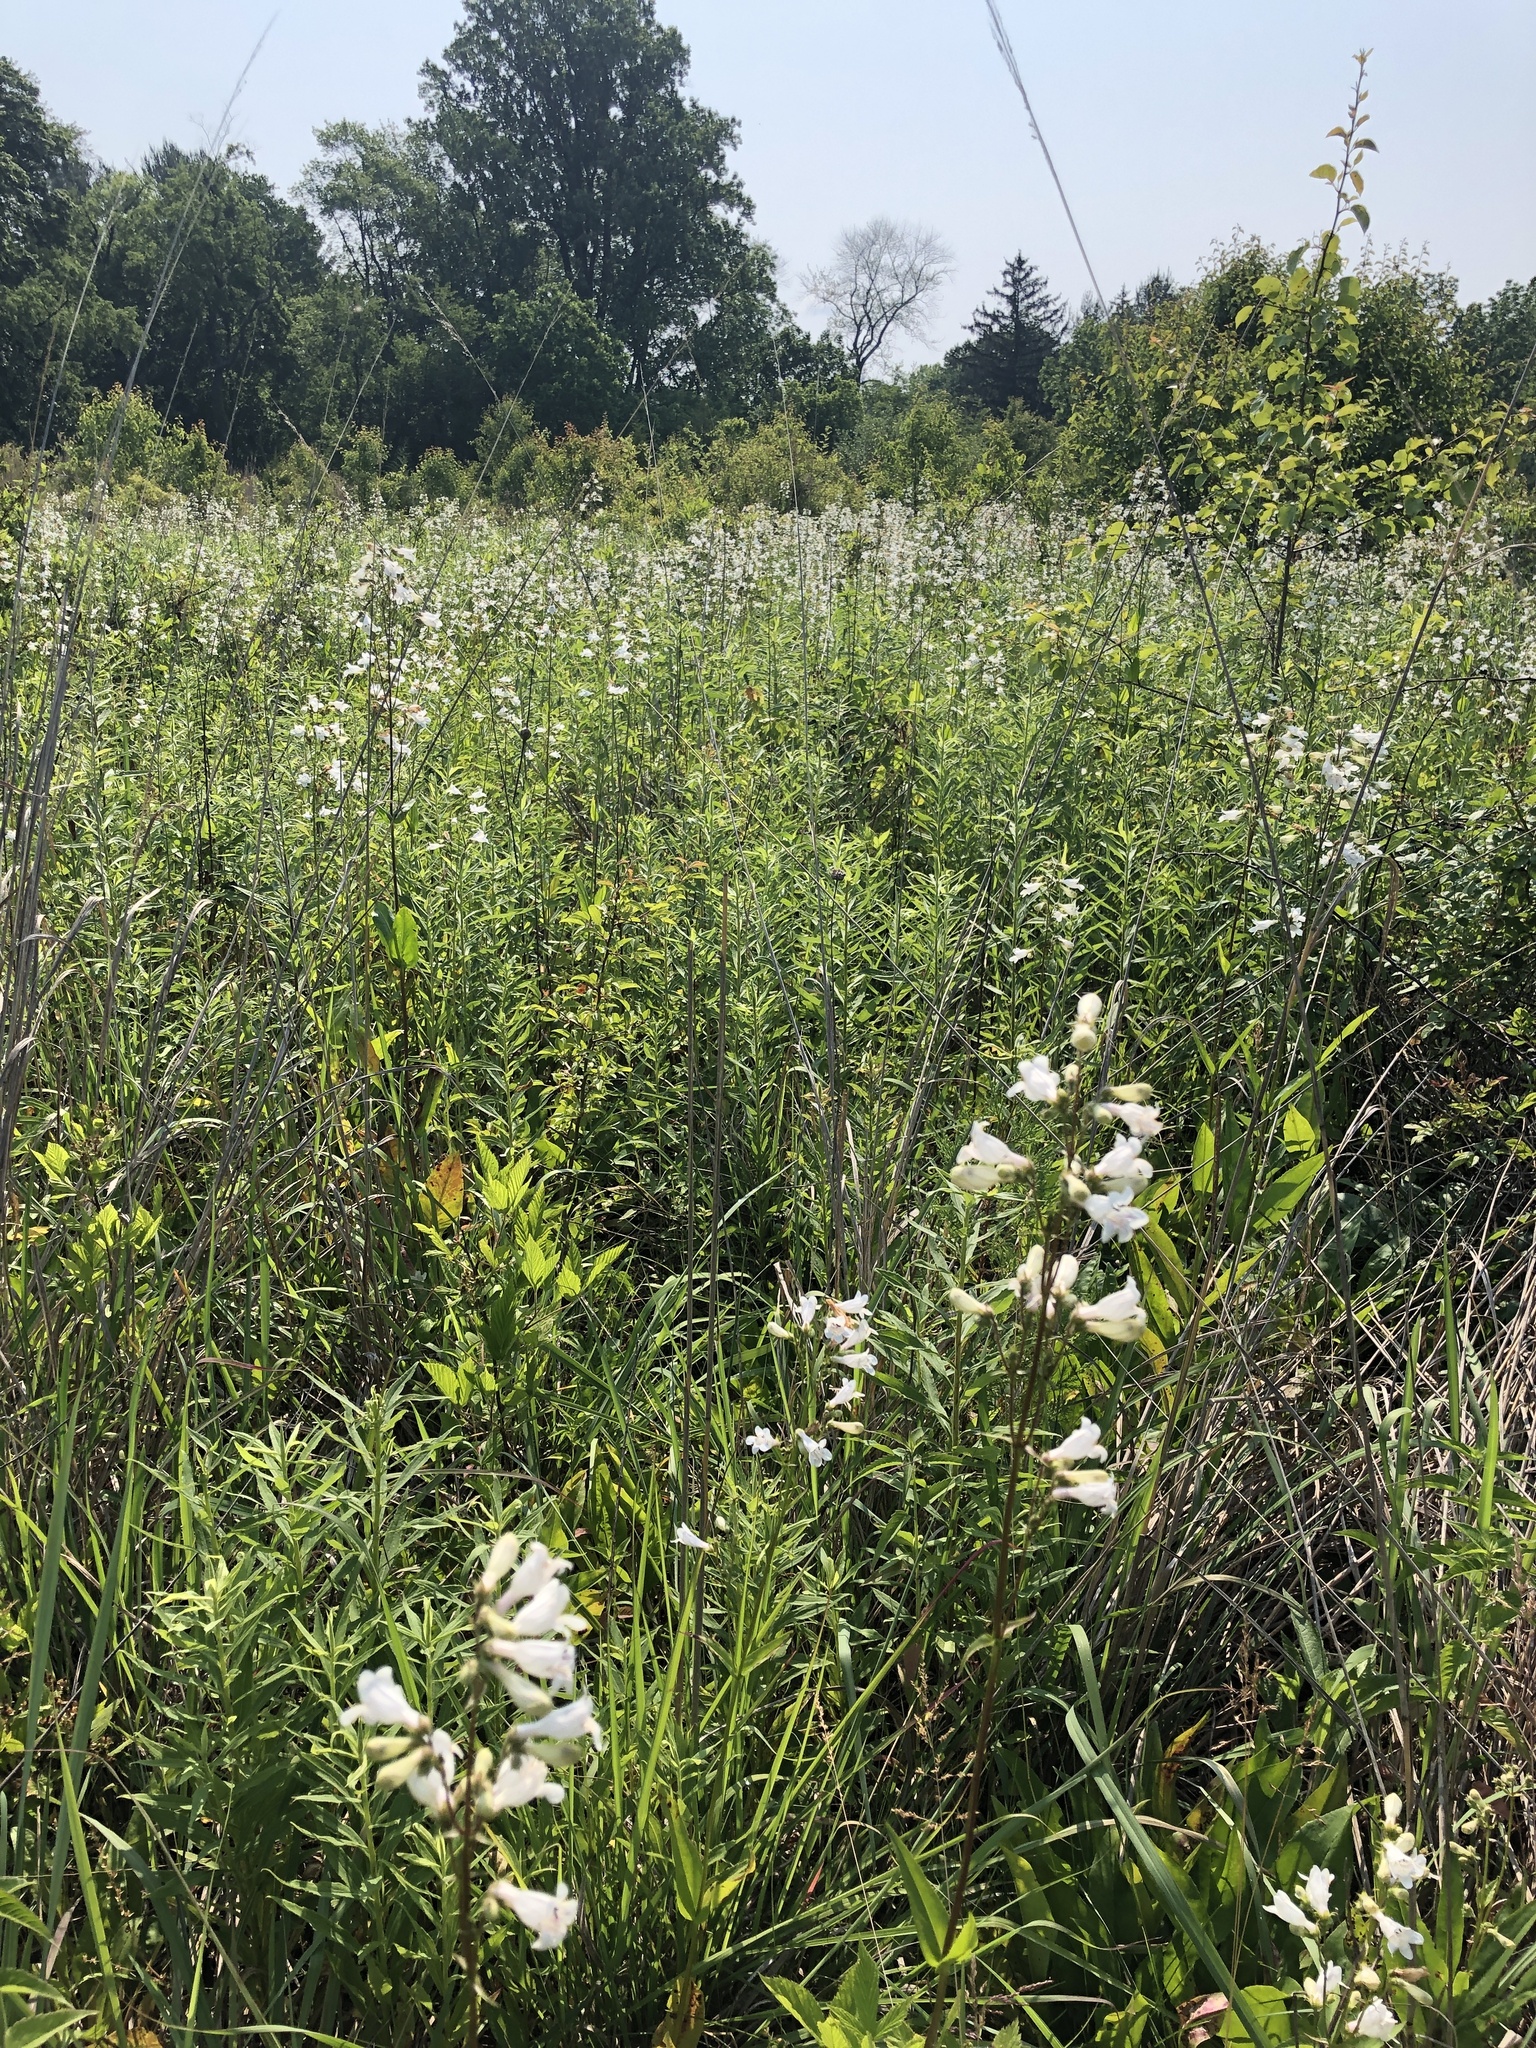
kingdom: Plantae
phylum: Tracheophyta
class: Magnoliopsida
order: Lamiales
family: Plantaginaceae
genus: Penstemon
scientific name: Penstemon digitalis
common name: Foxglove beardtongue
